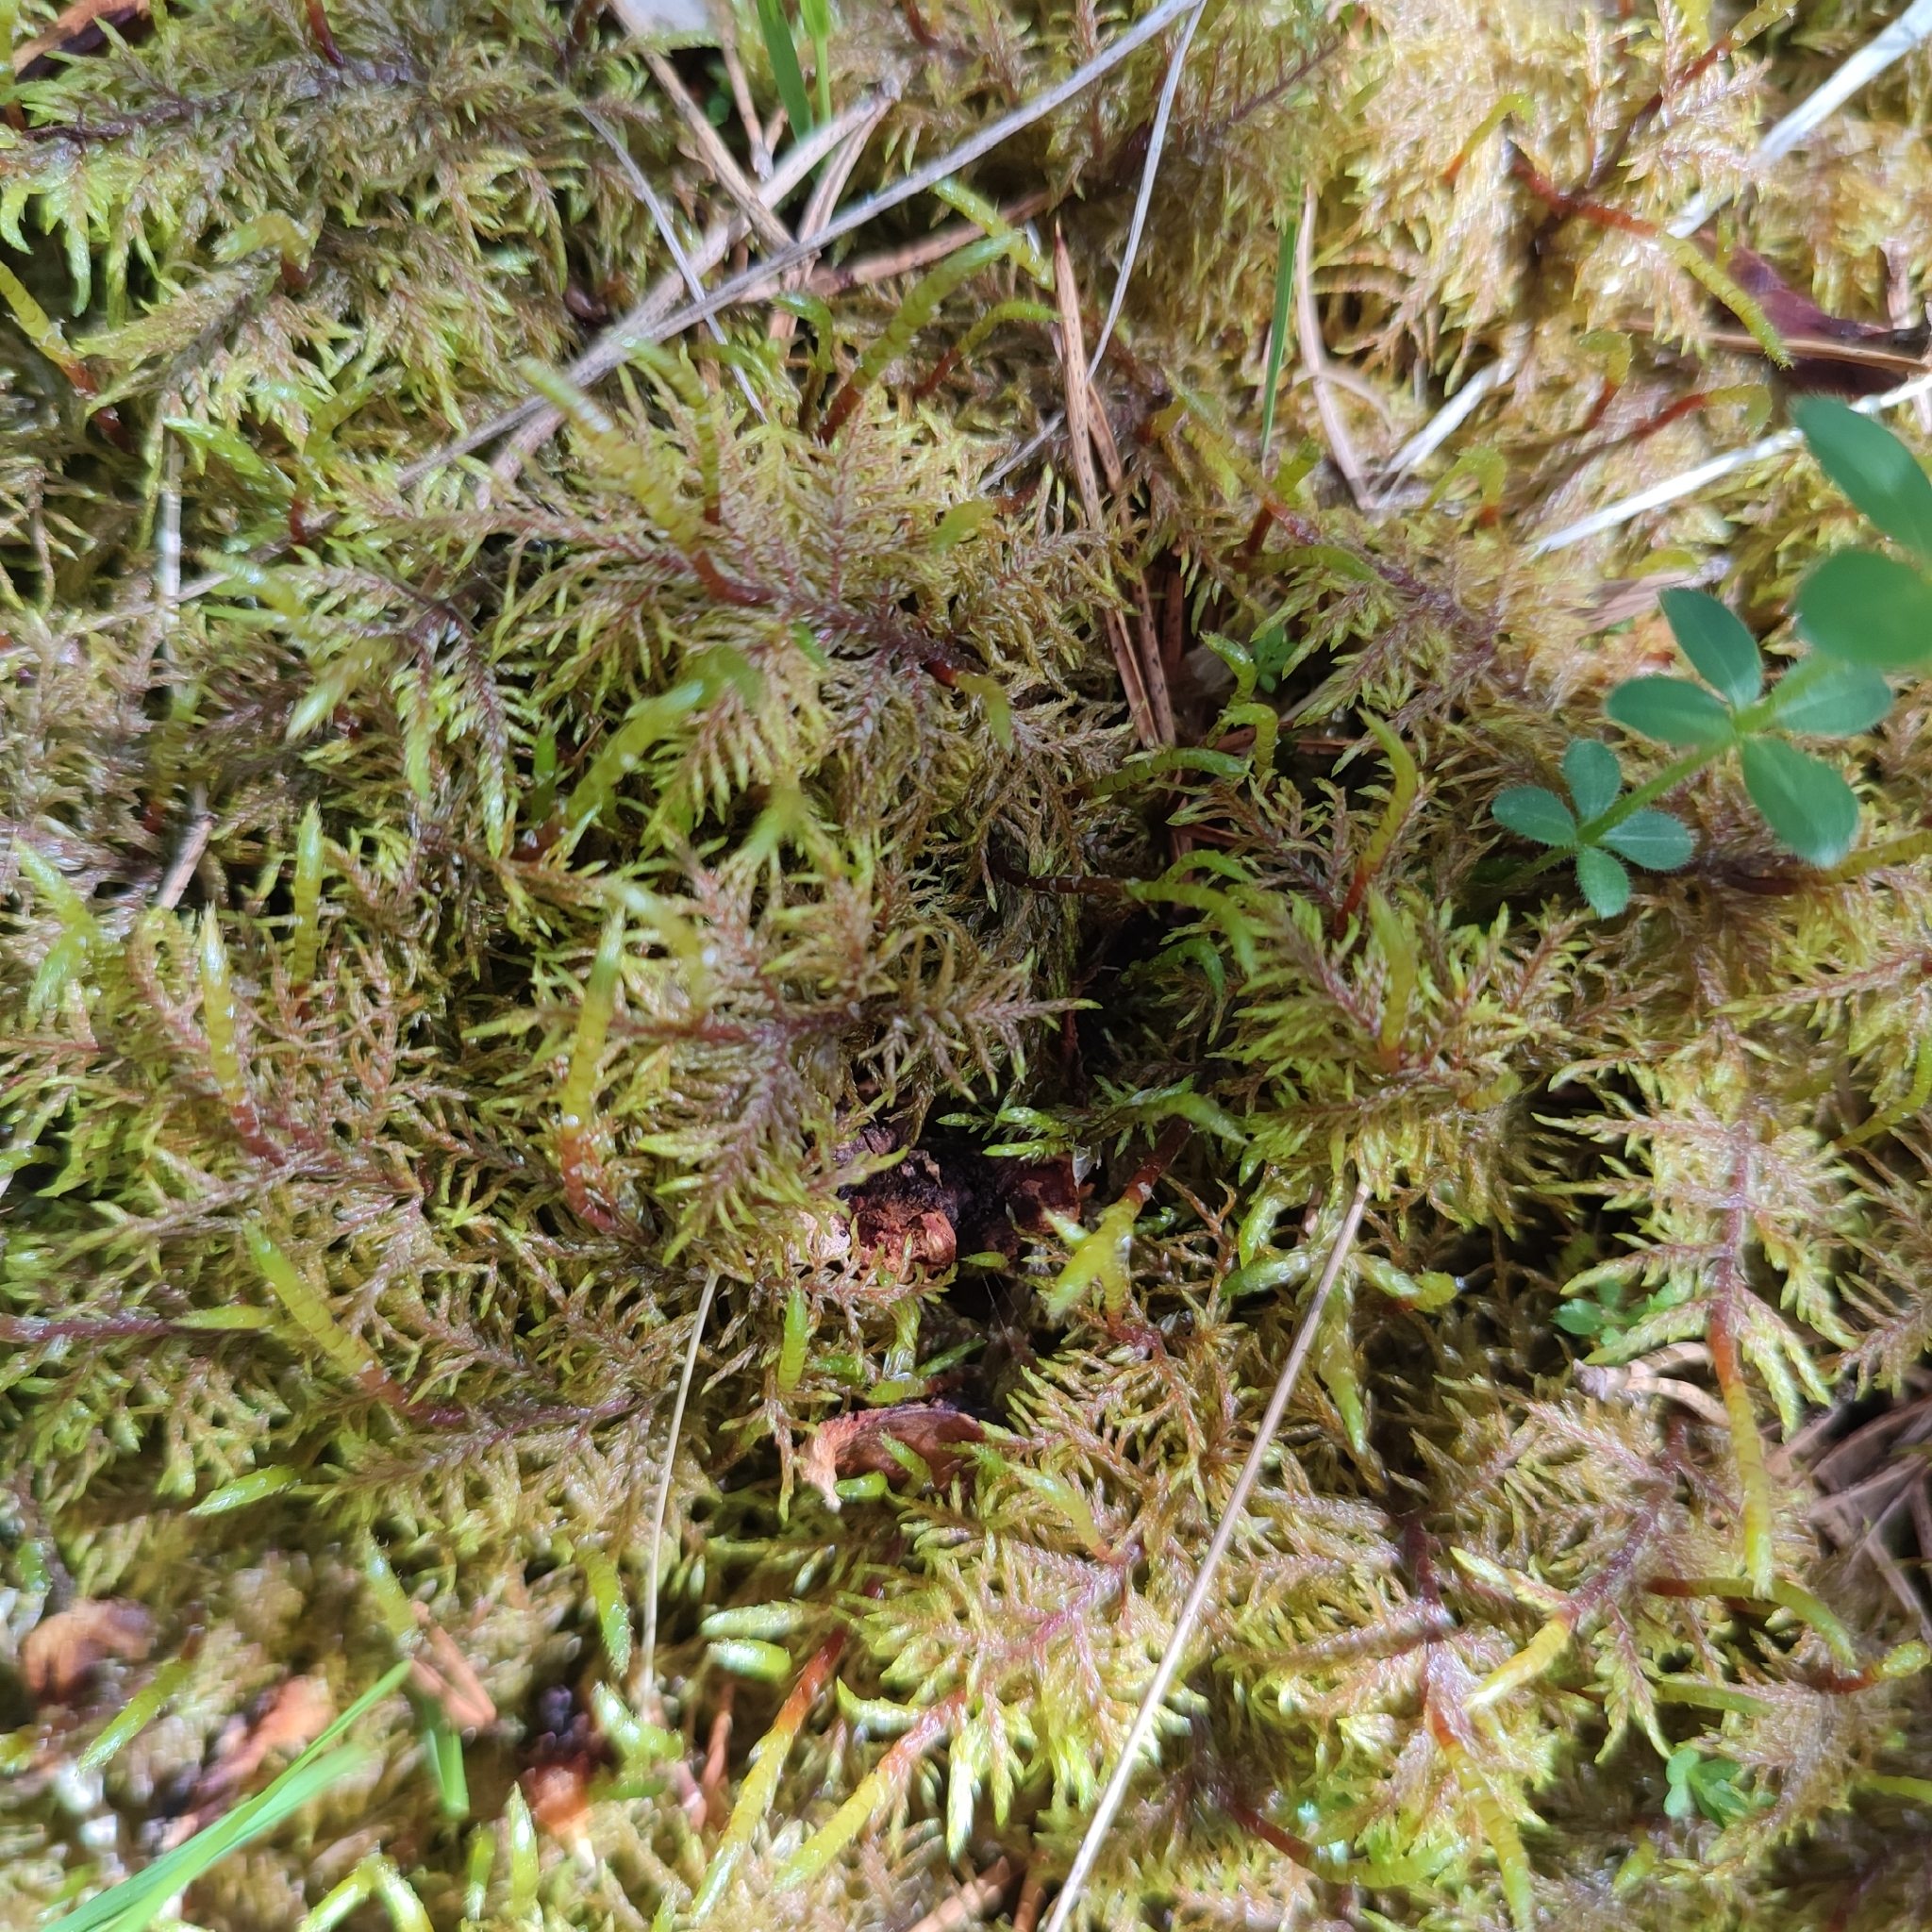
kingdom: Plantae
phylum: Bryophyta
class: Bryopsida
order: Hypnales
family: Hylocomiaceae
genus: Hylocomium
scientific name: Hylocomium splendens
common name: Stairstep moss
